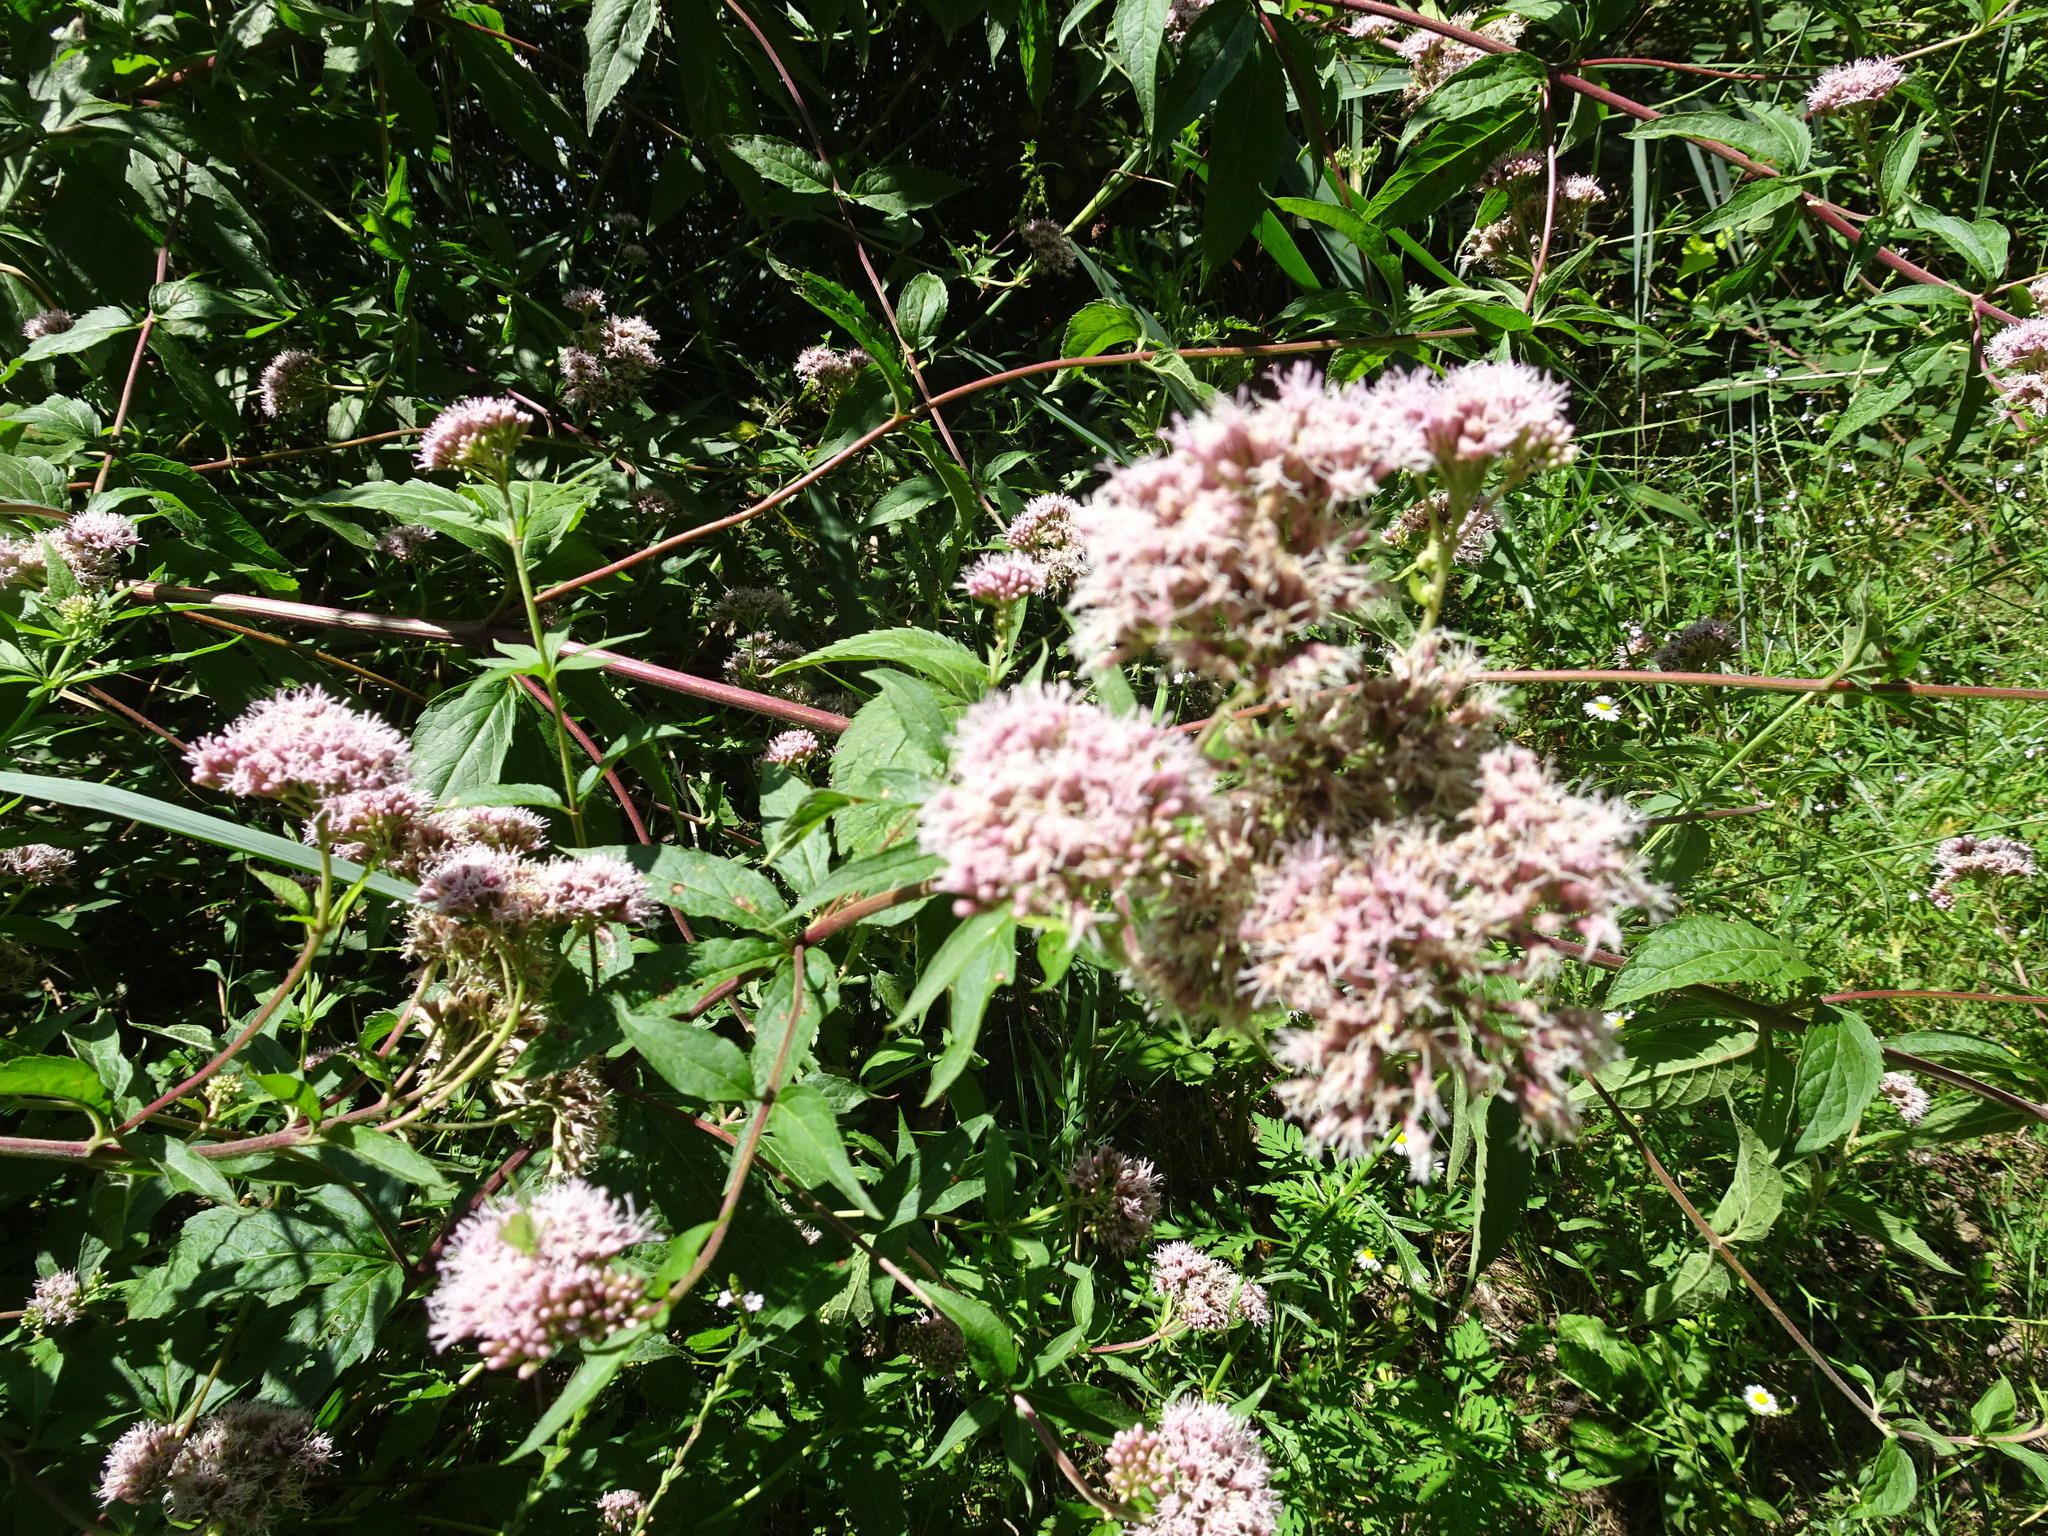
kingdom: Plantae
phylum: Tracheophyta
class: Magnoliopsida
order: Asterales
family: Asteraceae
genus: Eupatorium
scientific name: Eupatorium cannabinum
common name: Hemp-agrimony
